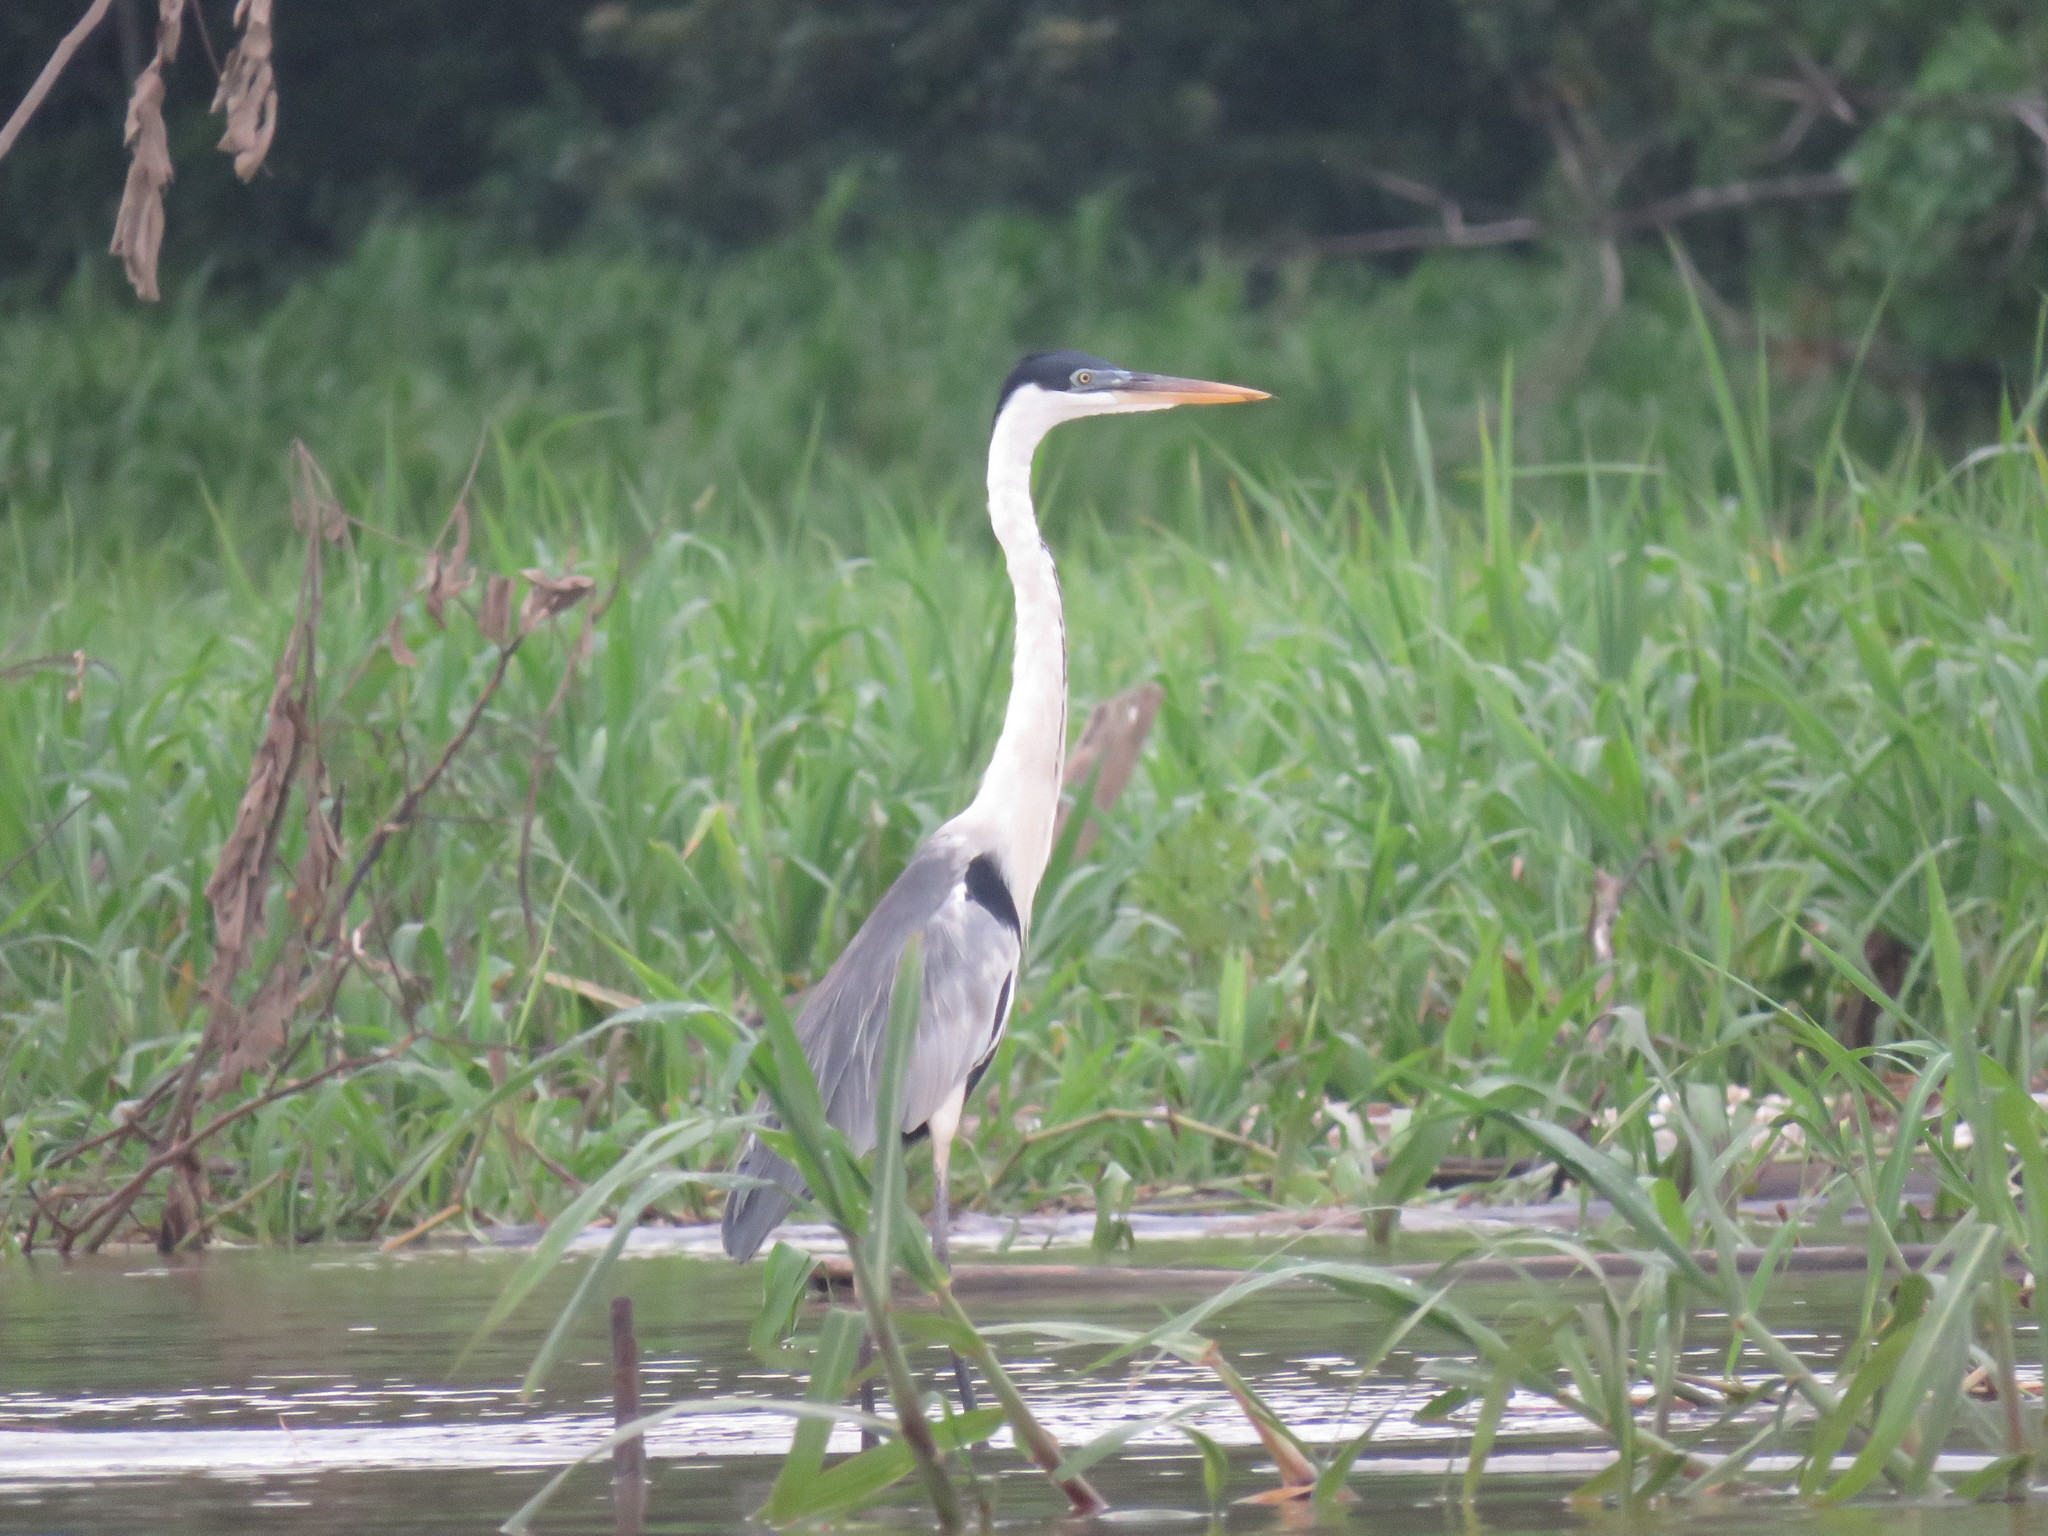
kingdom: Animalia
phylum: Chordata
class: Aves
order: Pelecaniformes
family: Ardeidae
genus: Ardea
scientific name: Ardea cocoi
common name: Cocoi heron
